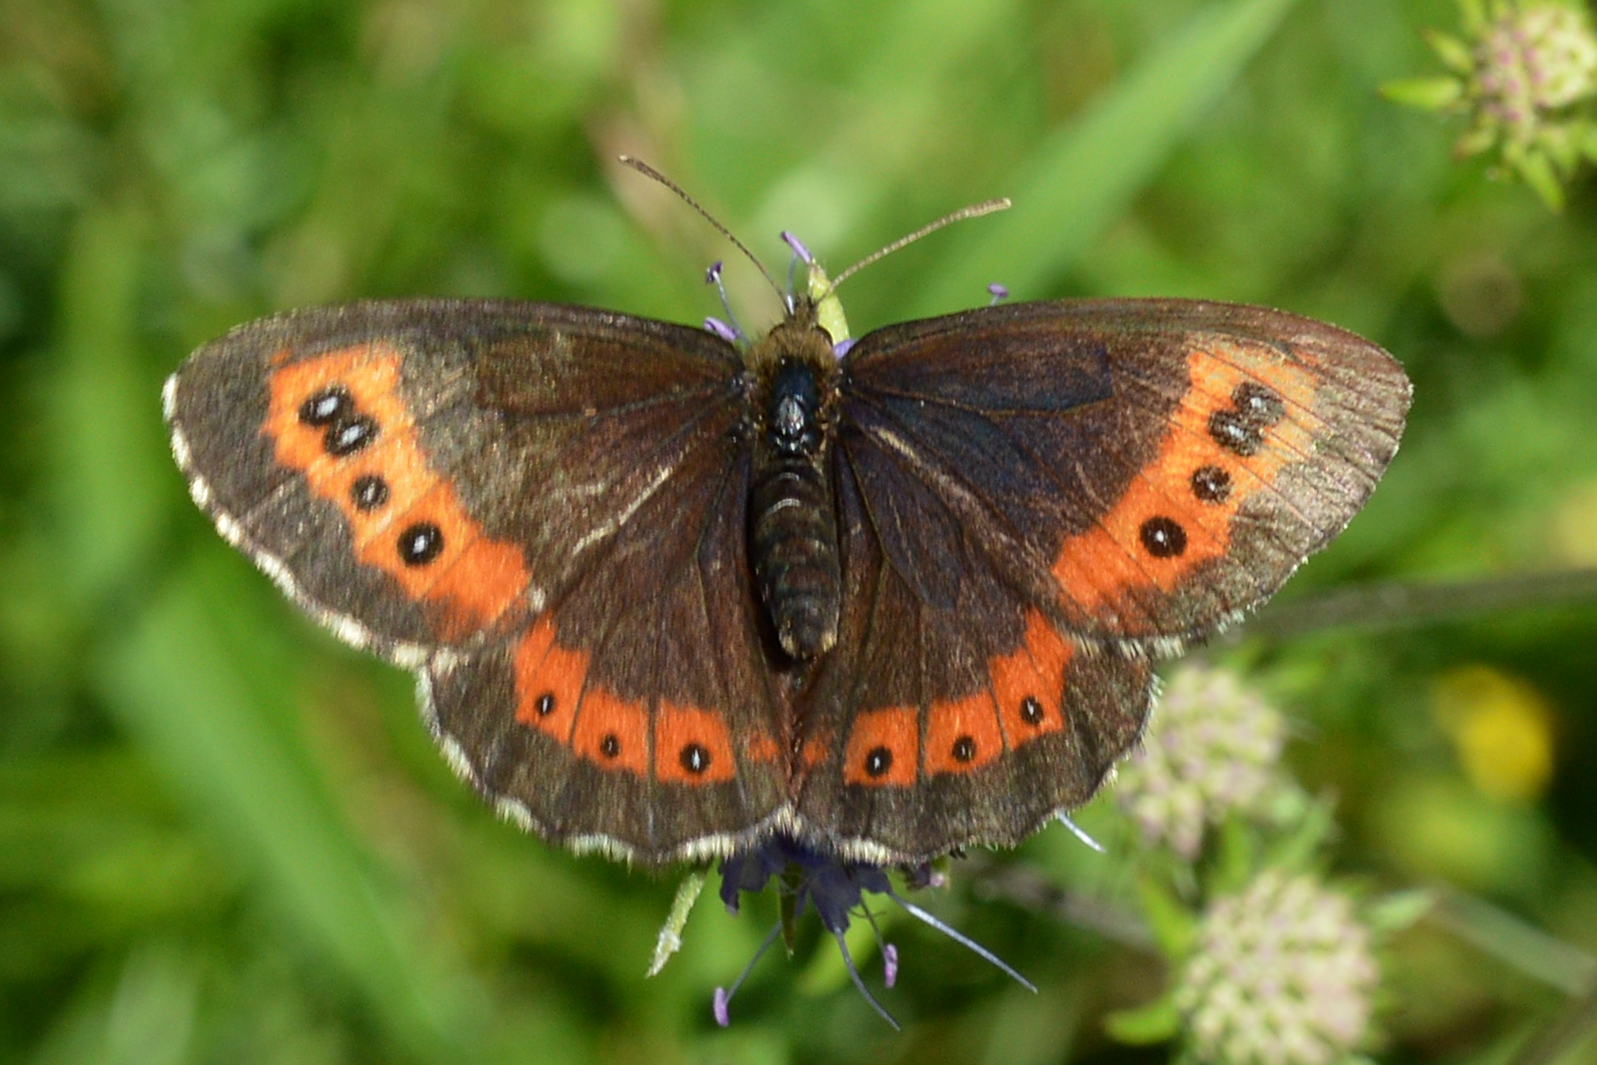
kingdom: Animalia
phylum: Arthropoda
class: Insecta
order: Lepidoptera
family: Nymphalidae
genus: Erebia
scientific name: Erebia ligea
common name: Arran brown
